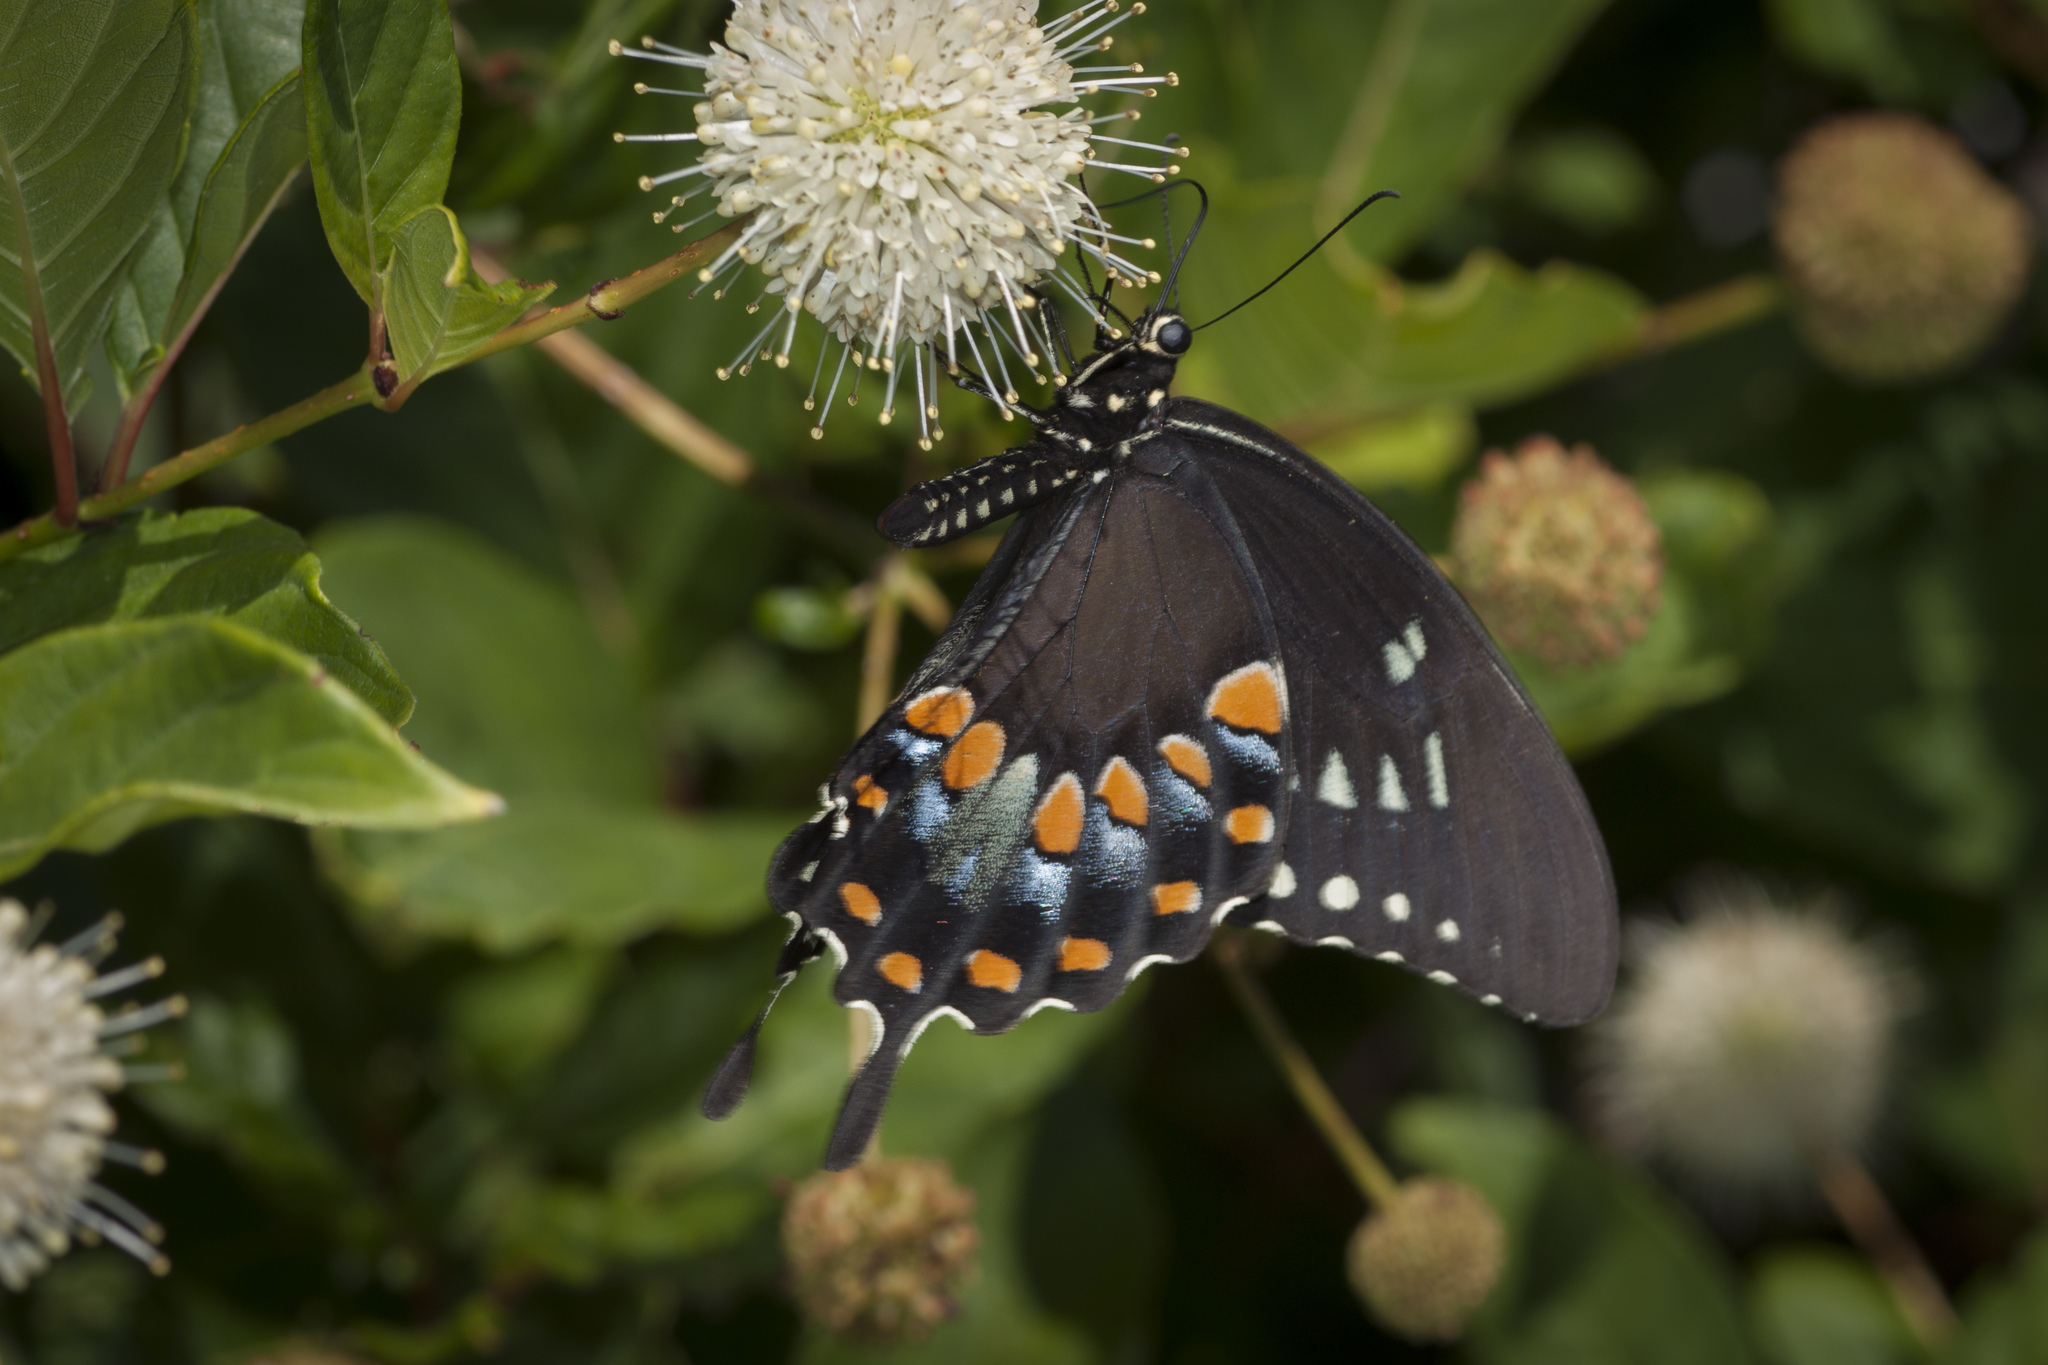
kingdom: Animalia
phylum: Arthropoda
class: Insecta
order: Lepidoptera
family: Papilionidae
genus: Papilio
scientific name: Papilio troilus
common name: Spicebush swallowtail
